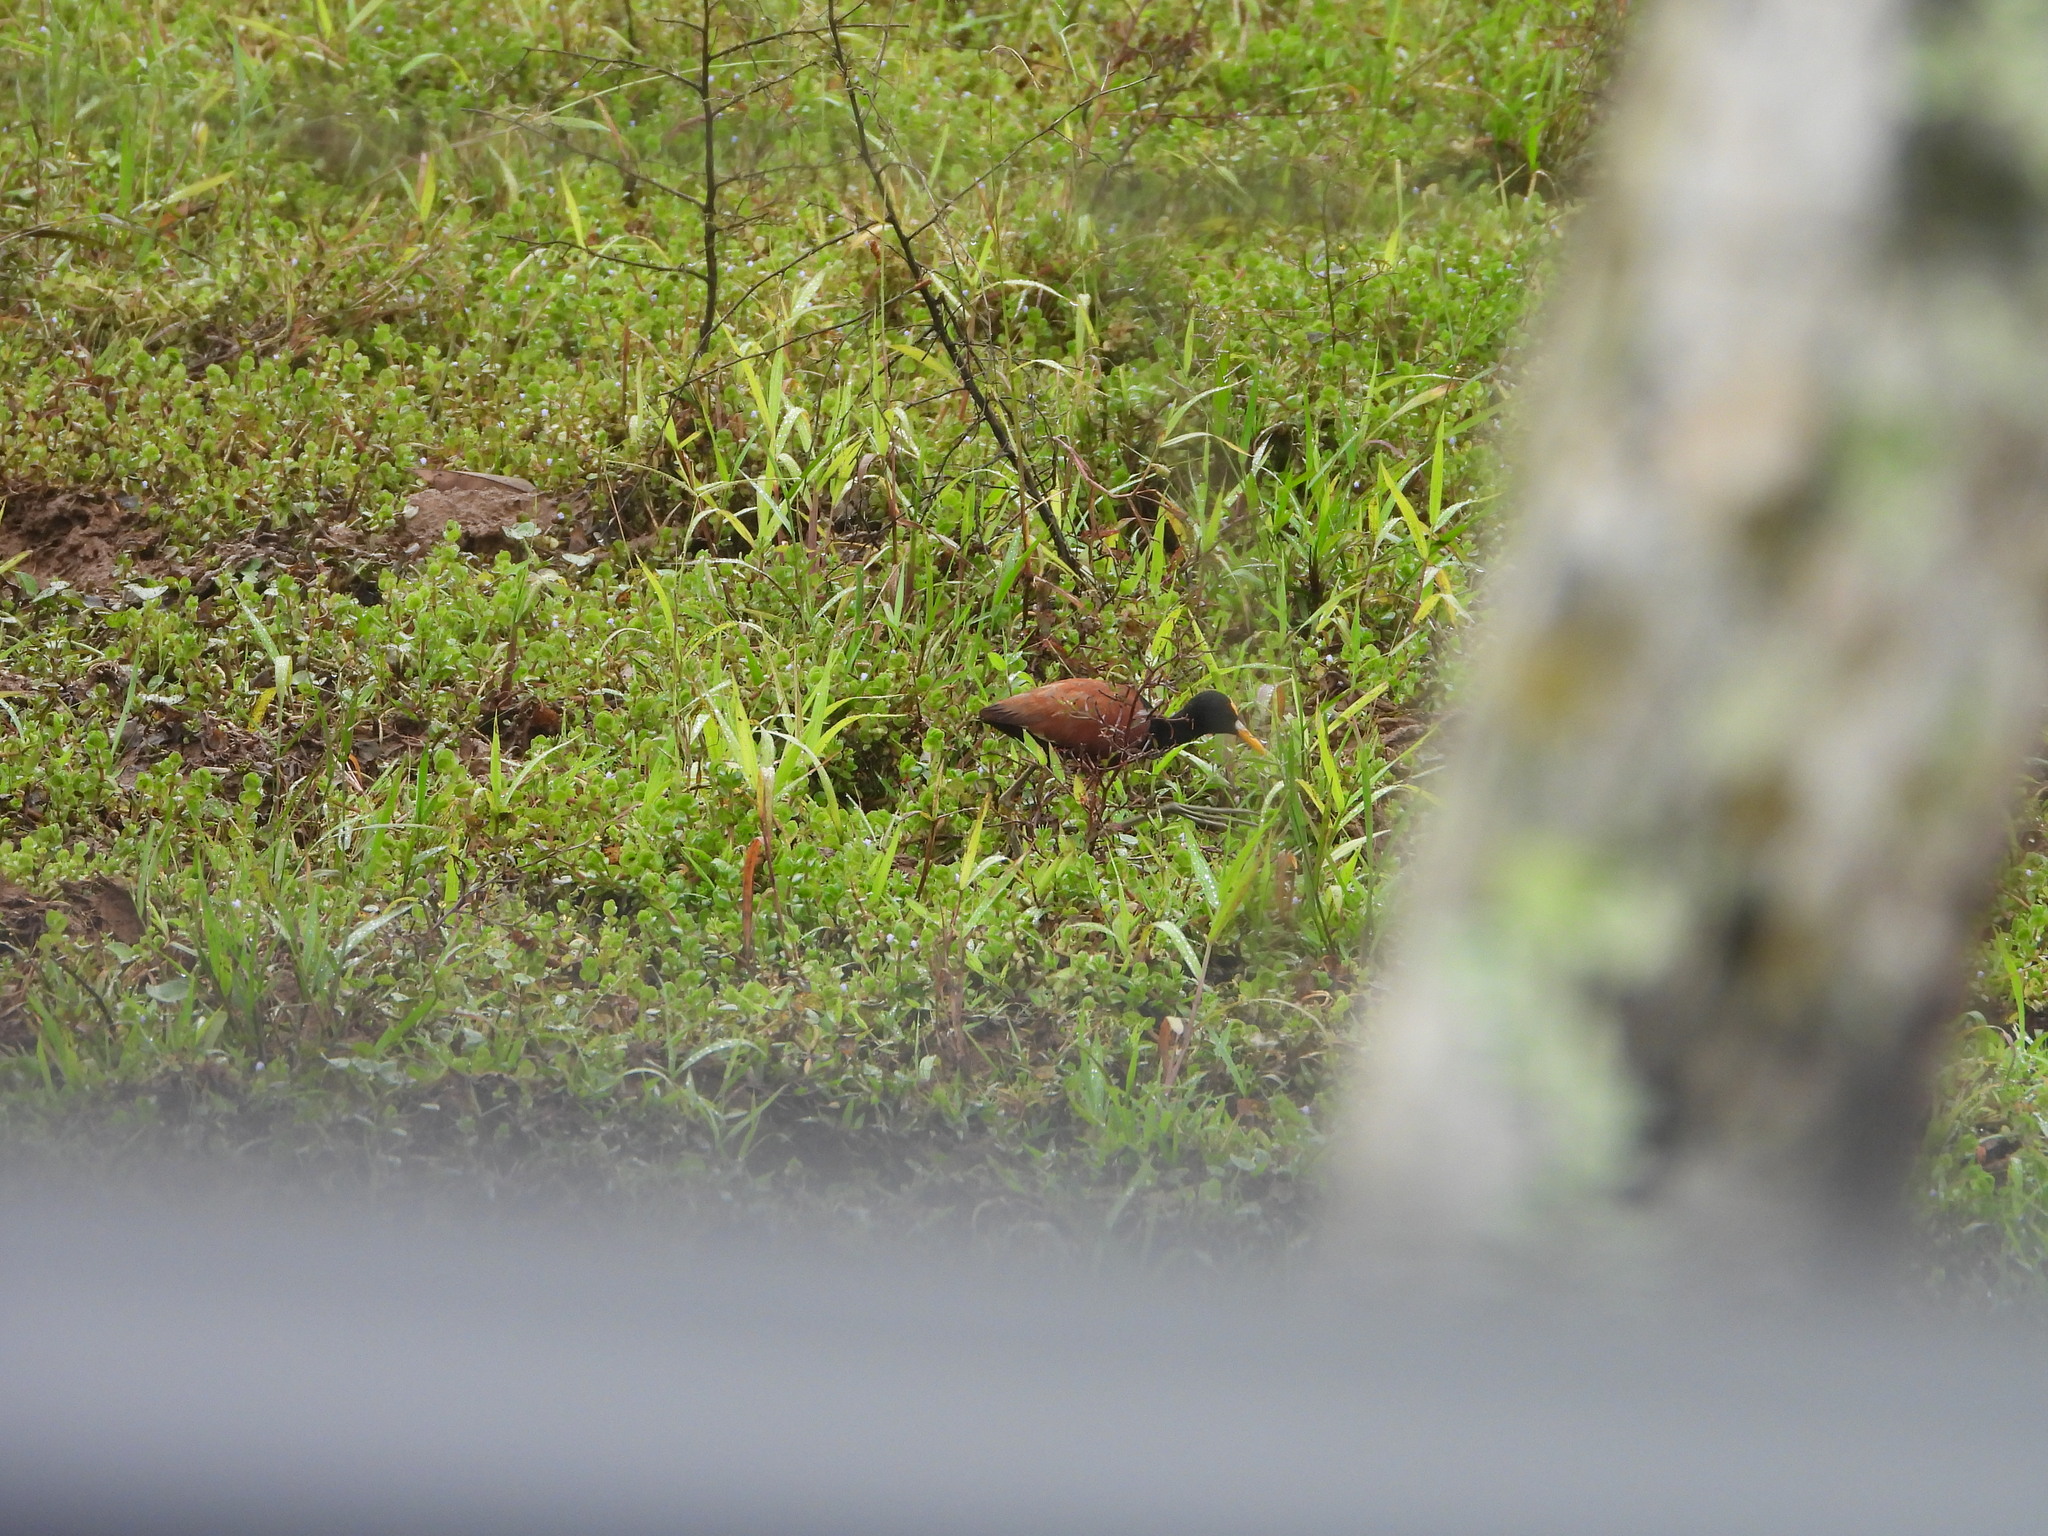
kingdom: Animalia
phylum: Chordata
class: Aves
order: Charadriiformes
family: Jacanidae
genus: Jacana
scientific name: Jacana spinosa
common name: Northern jacana
